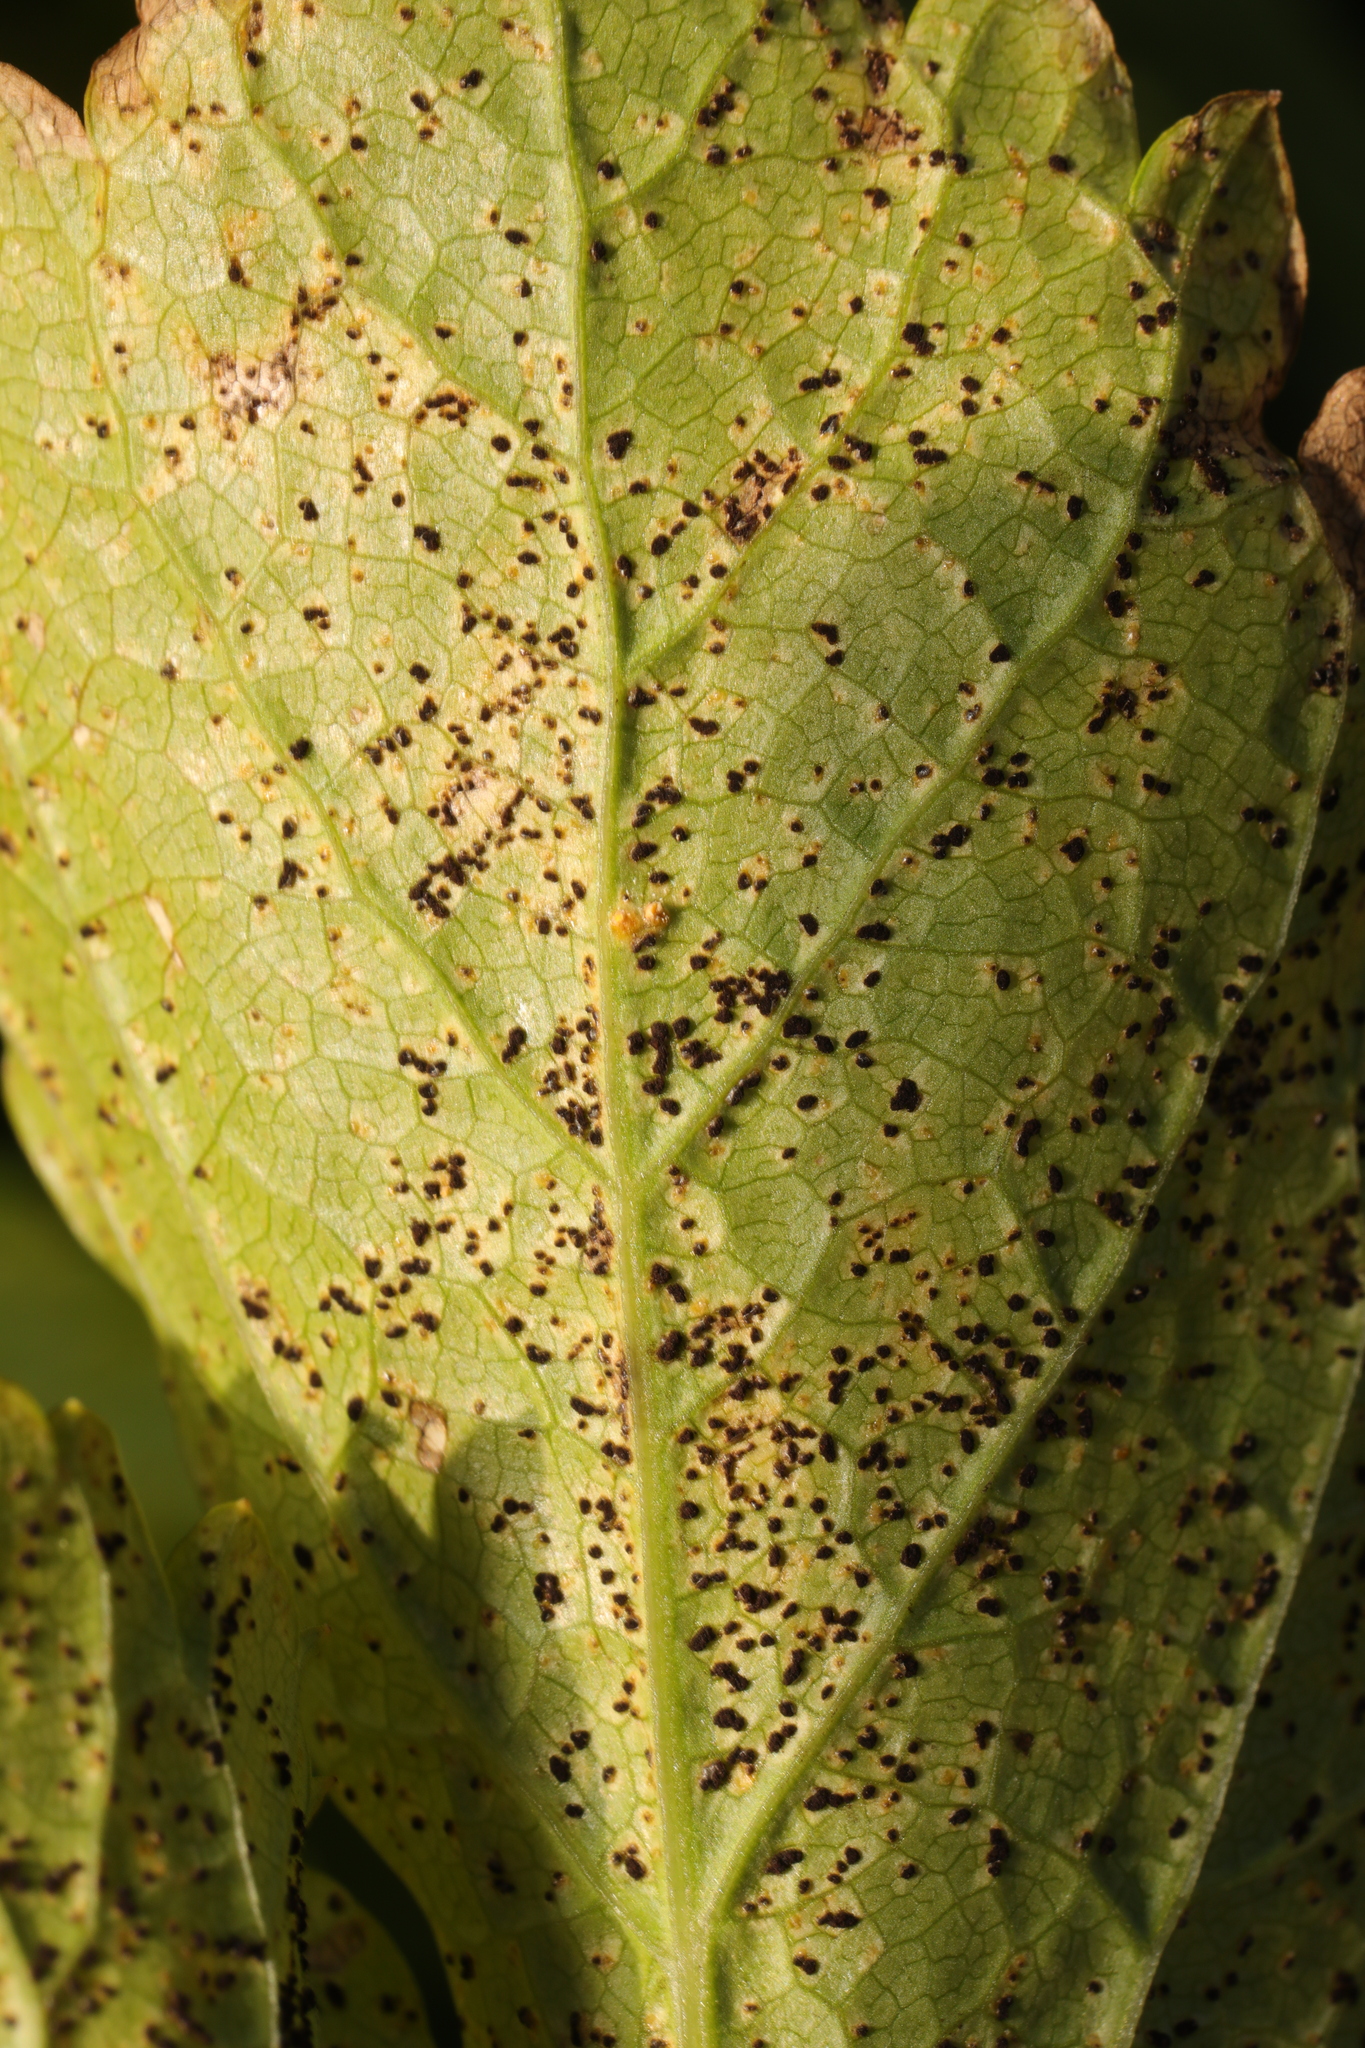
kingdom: Fungi
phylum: Basidiomycota
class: Pucciniomycetes
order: Pucciniales
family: Pucciniaceae
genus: Puccinia
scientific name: Puccinia smyrnii
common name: Alexanders rust
